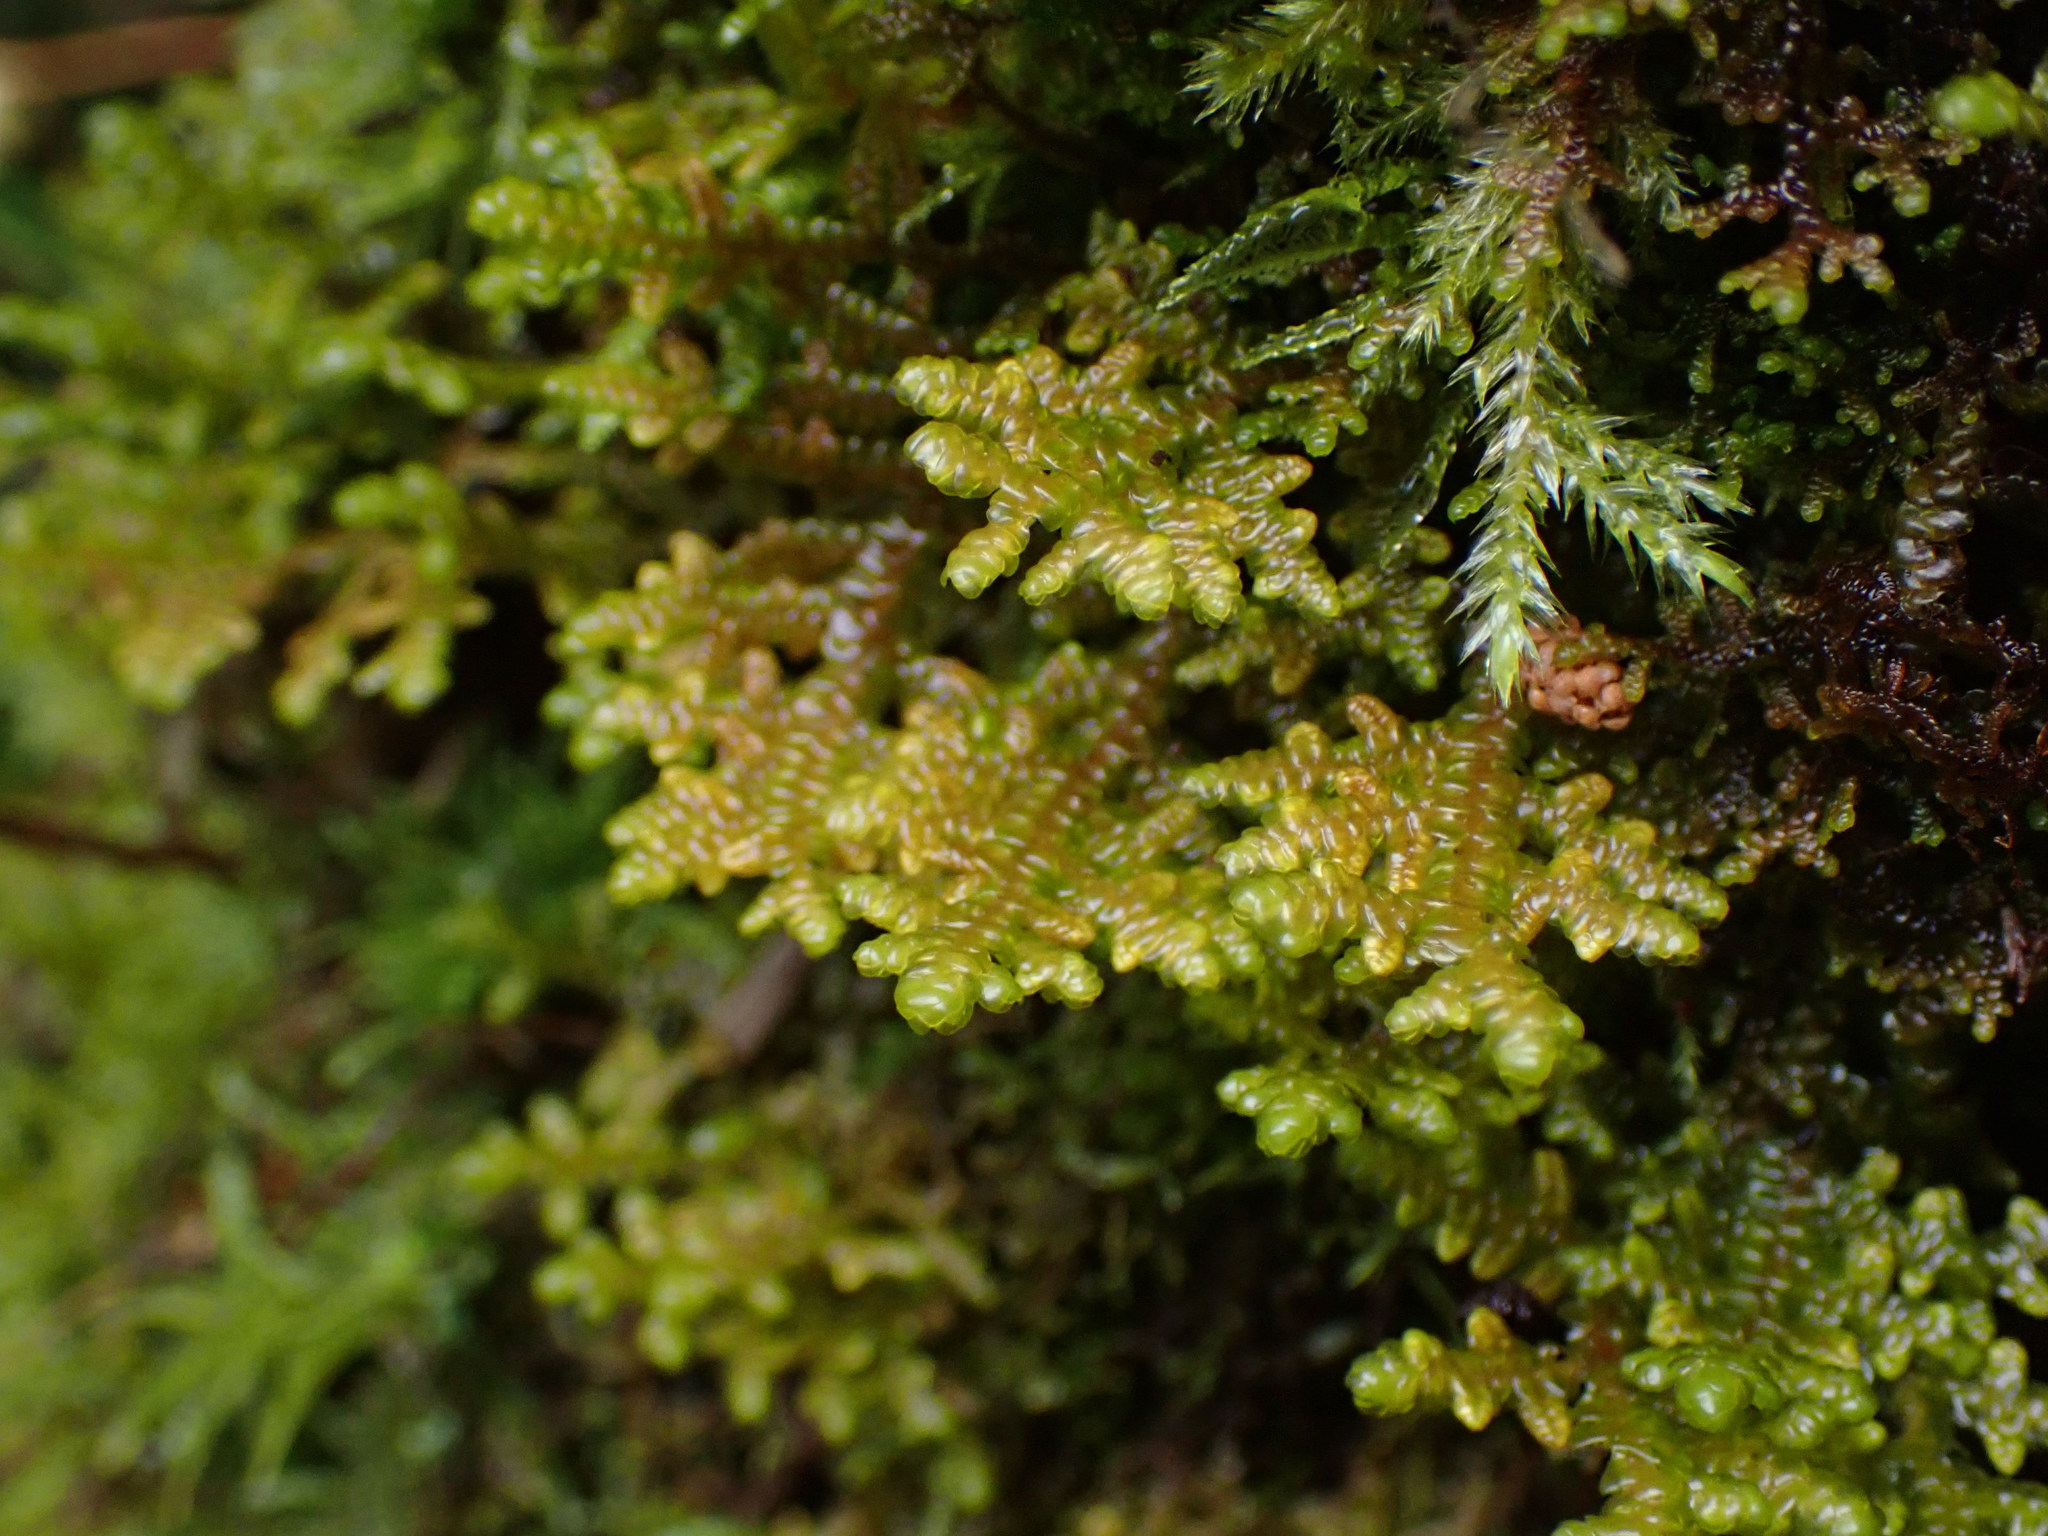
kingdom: Plantae
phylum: Marchantiophyta
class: Jungermanniopsida
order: Porellales
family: Porellaceae
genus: Porella
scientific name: Porella navicularis
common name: Tree ruffle liverwort
